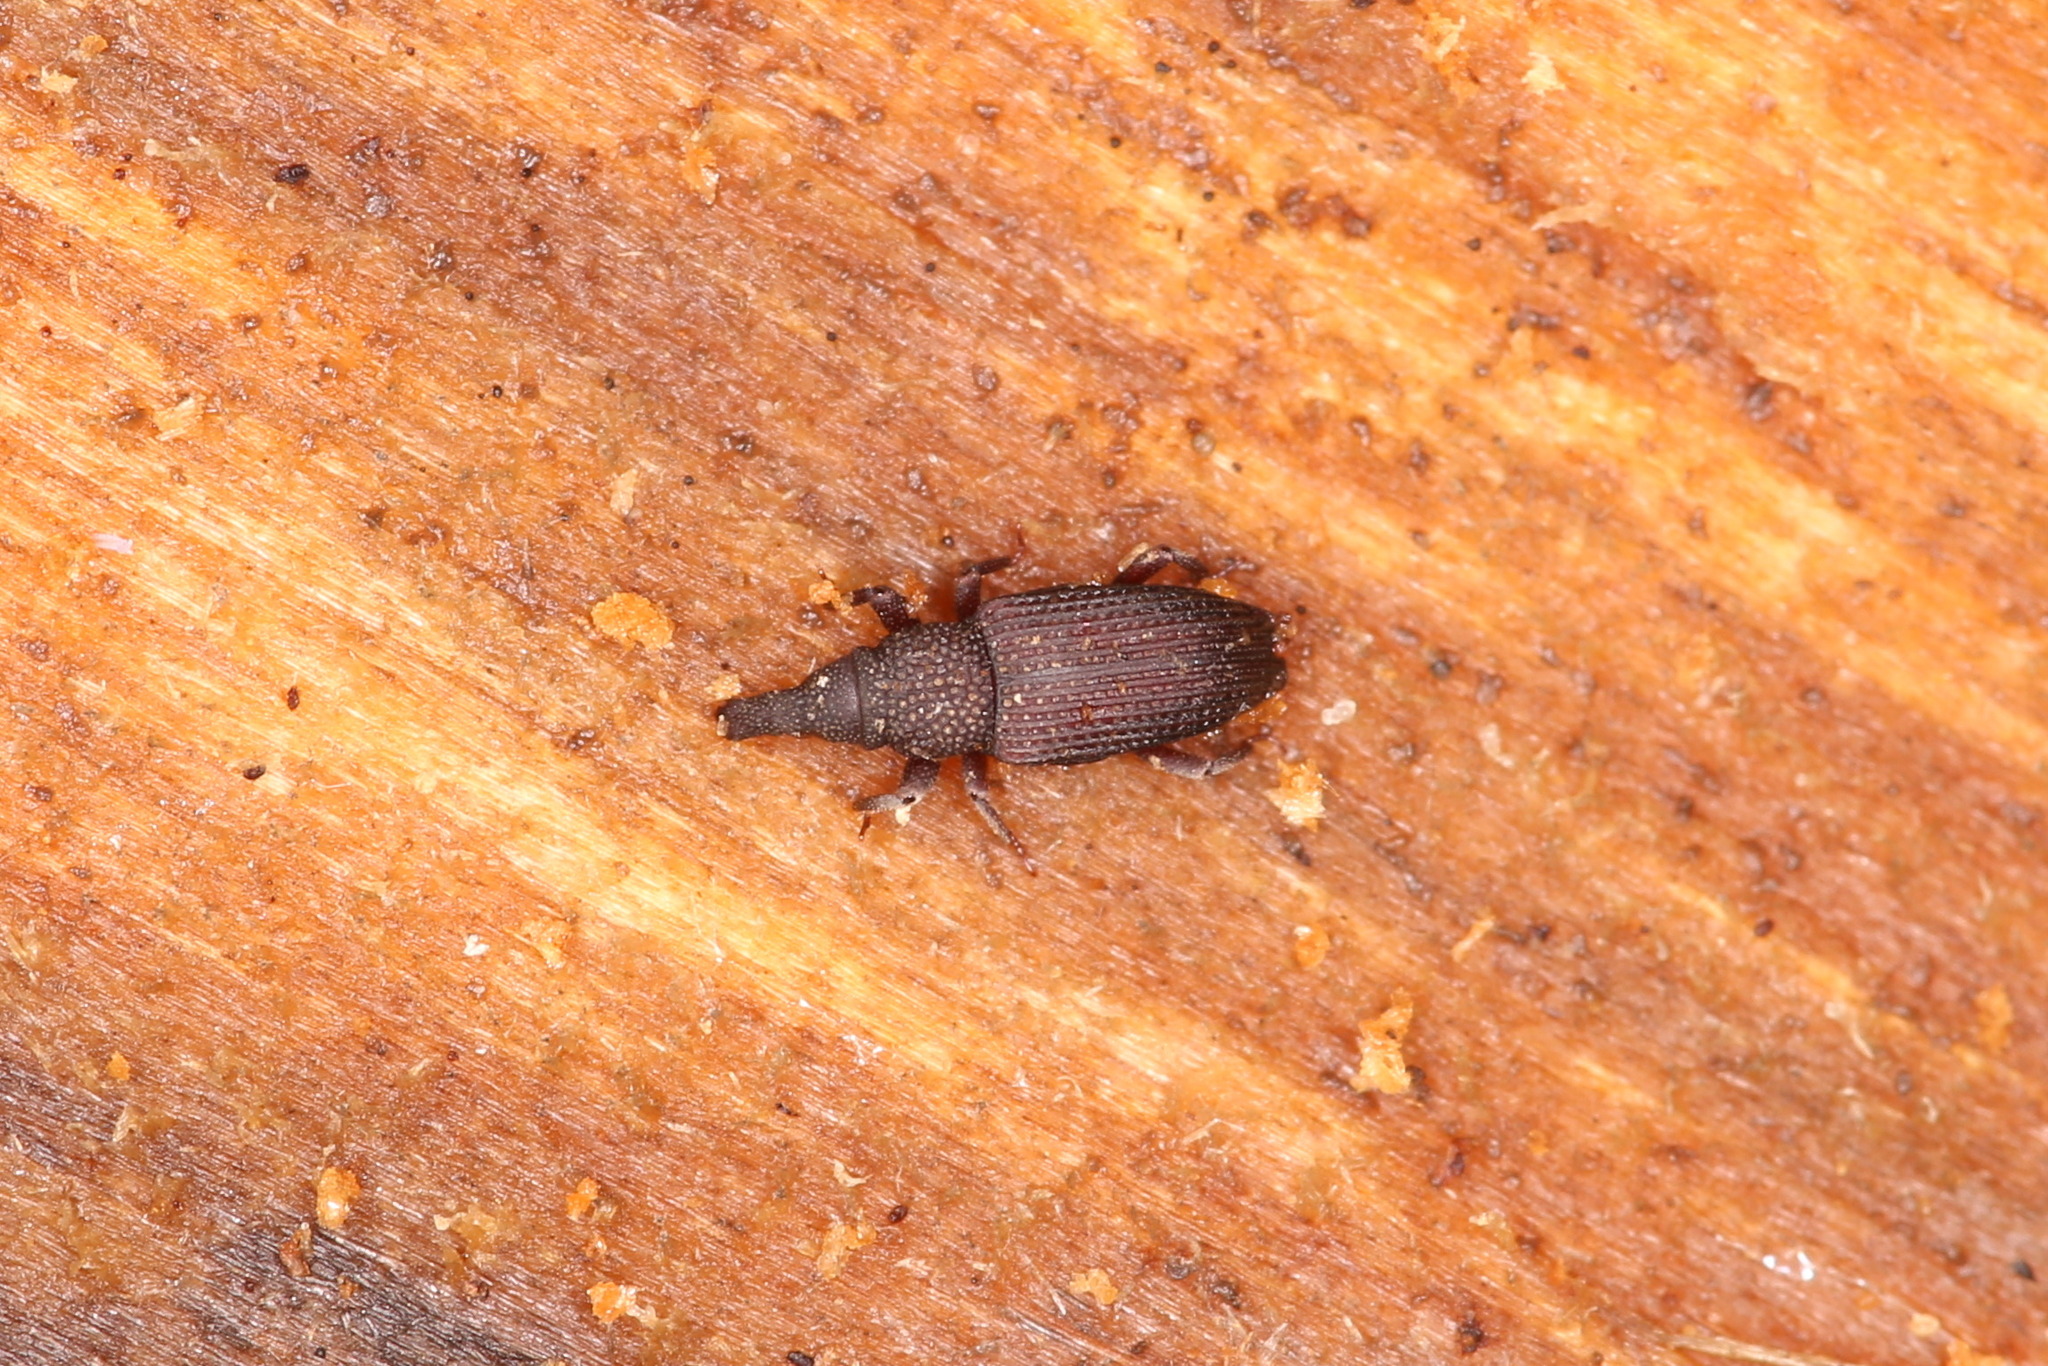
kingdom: Animalia
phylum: Arthropoda
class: Insecta
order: Coleoptera
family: Dryophthoridae
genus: Dryophthorus
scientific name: Dryophthorus corticalis
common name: Wood-boring weevil
